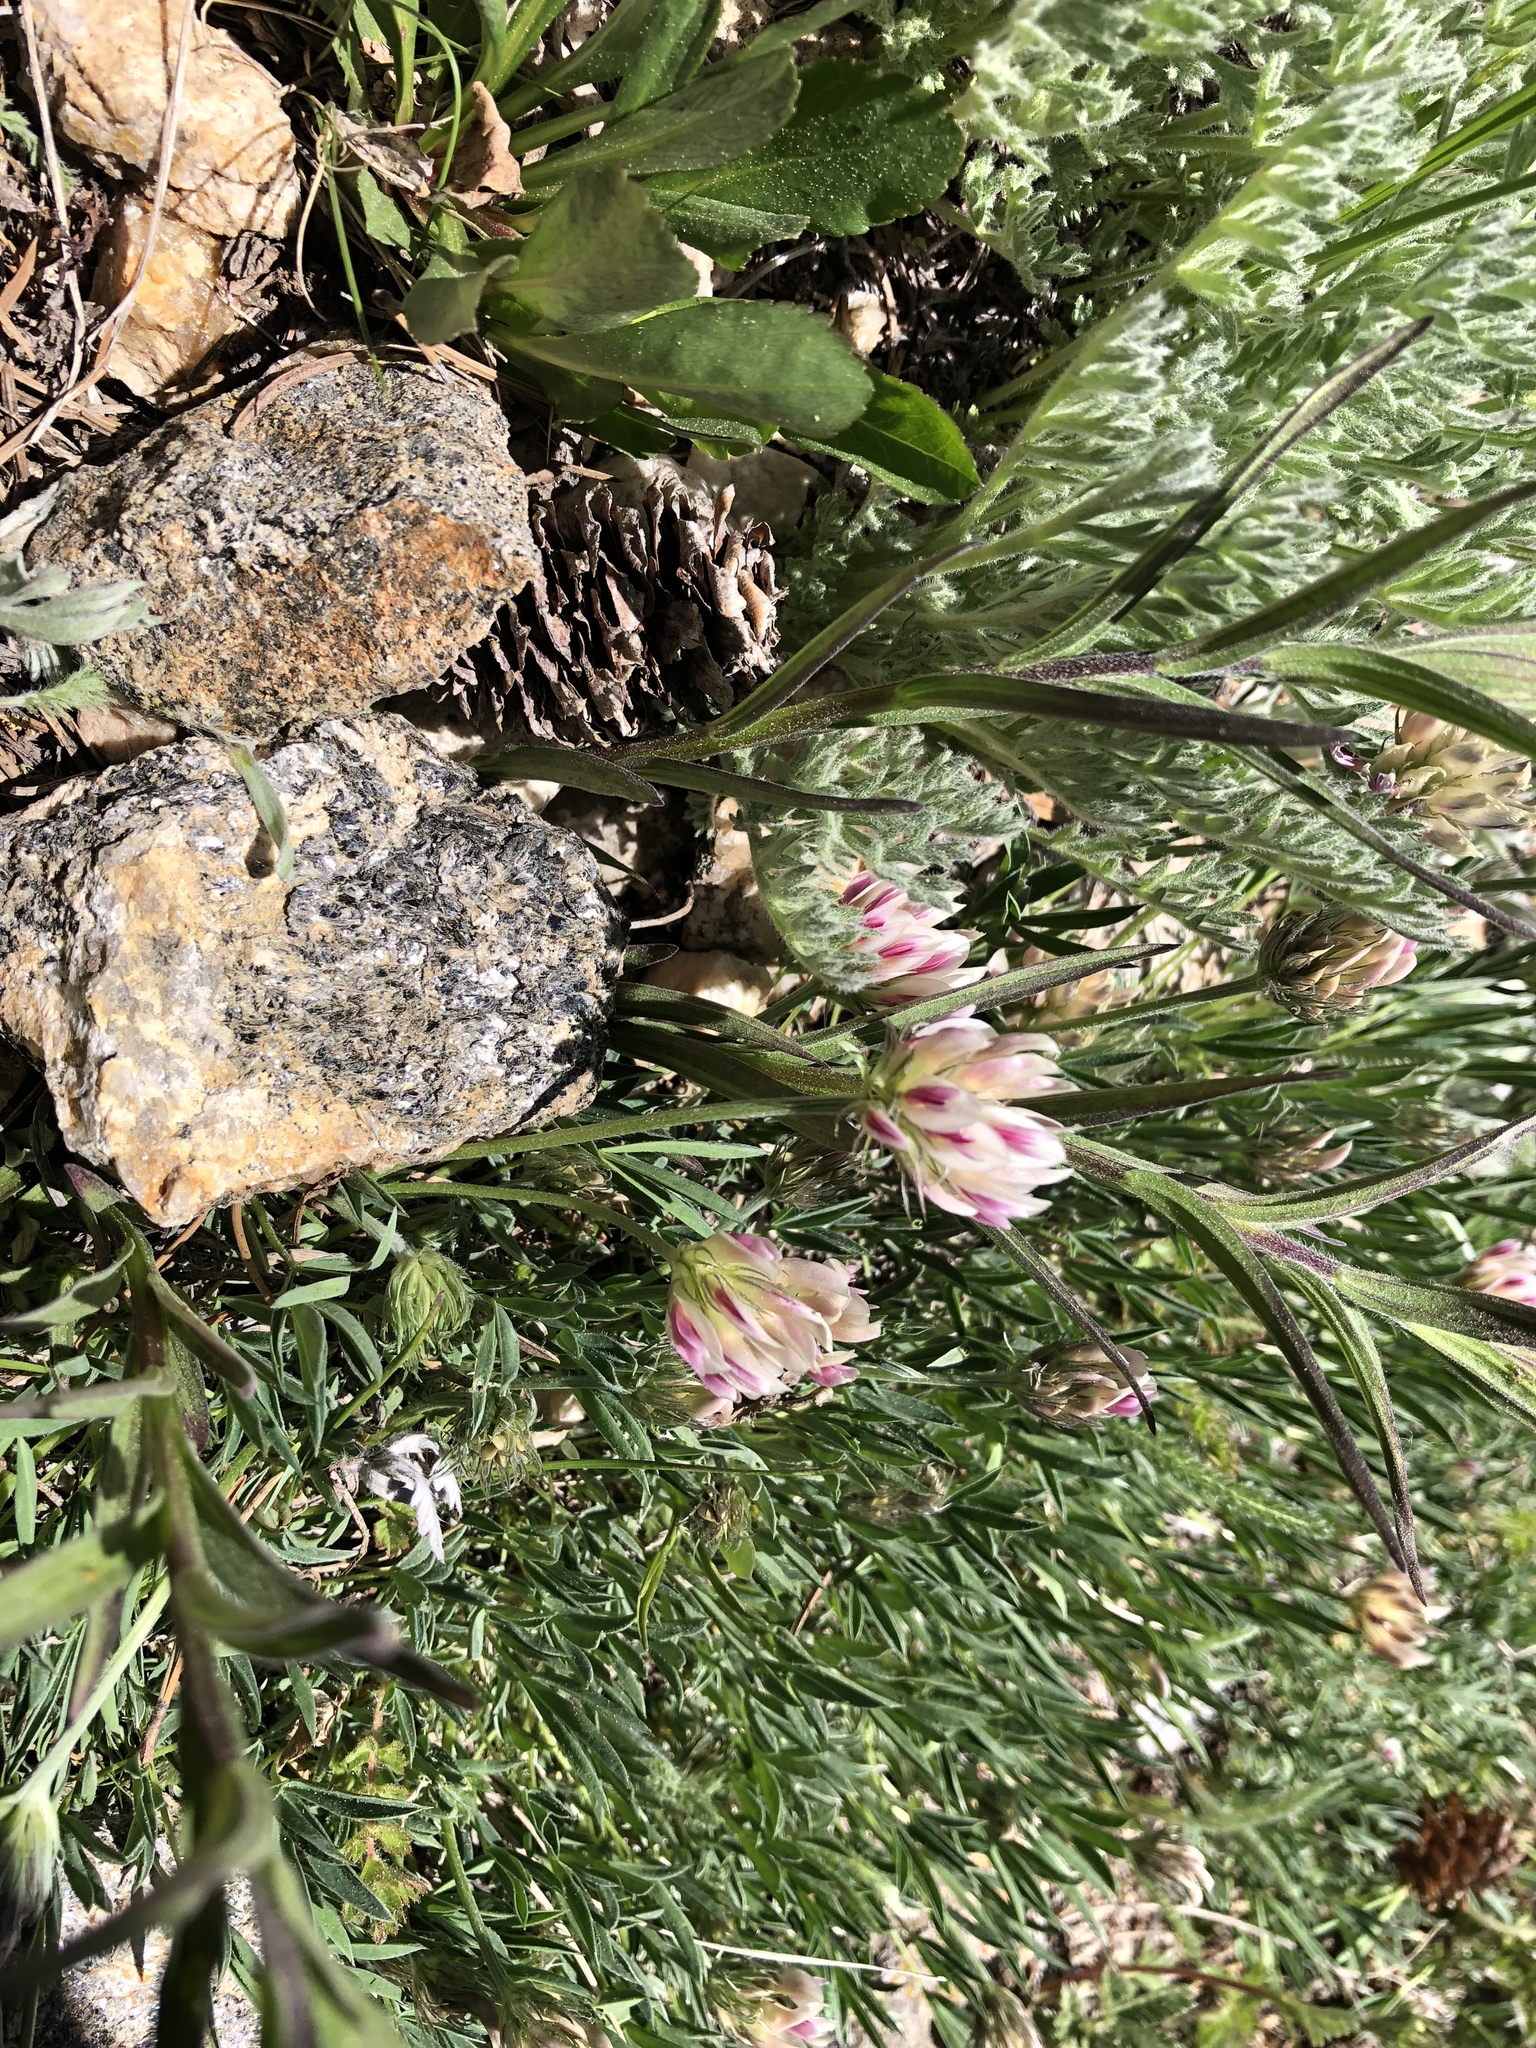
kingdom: Plantae
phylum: Tracheophyta
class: Magnoliopsida
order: Fabales
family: Fabaceae
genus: Trifolium
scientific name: Trifolium dasyphyllum
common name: Whip-root clover
